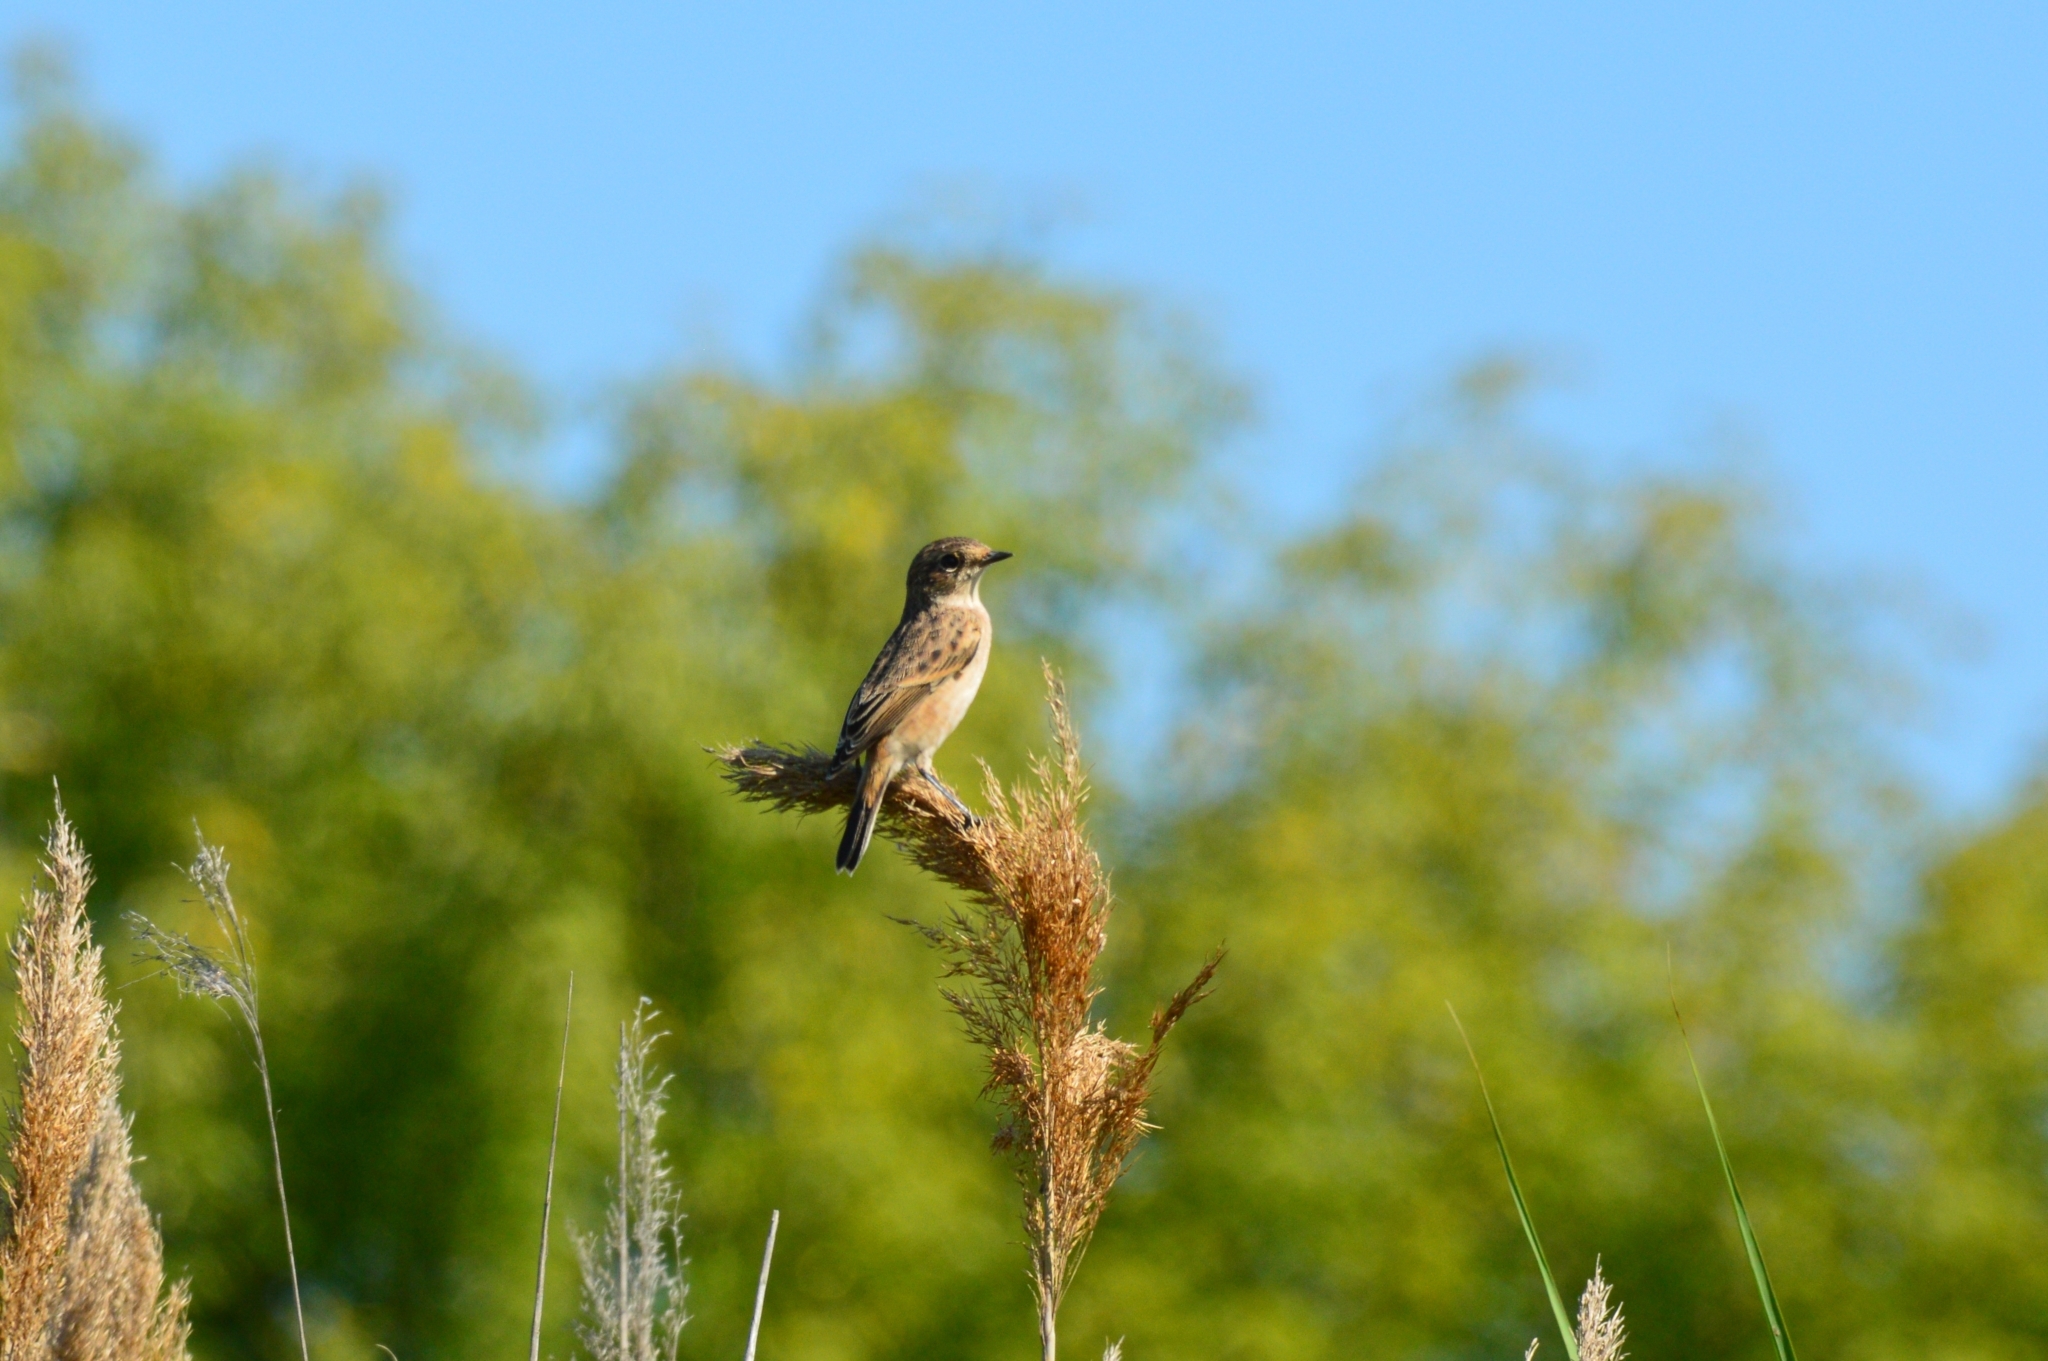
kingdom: Animalia
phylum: Chordata
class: Aves
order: Passeriformes
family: Muscicapidae
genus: Saxicola
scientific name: Saxicola maurus
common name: Siberian stonechat
